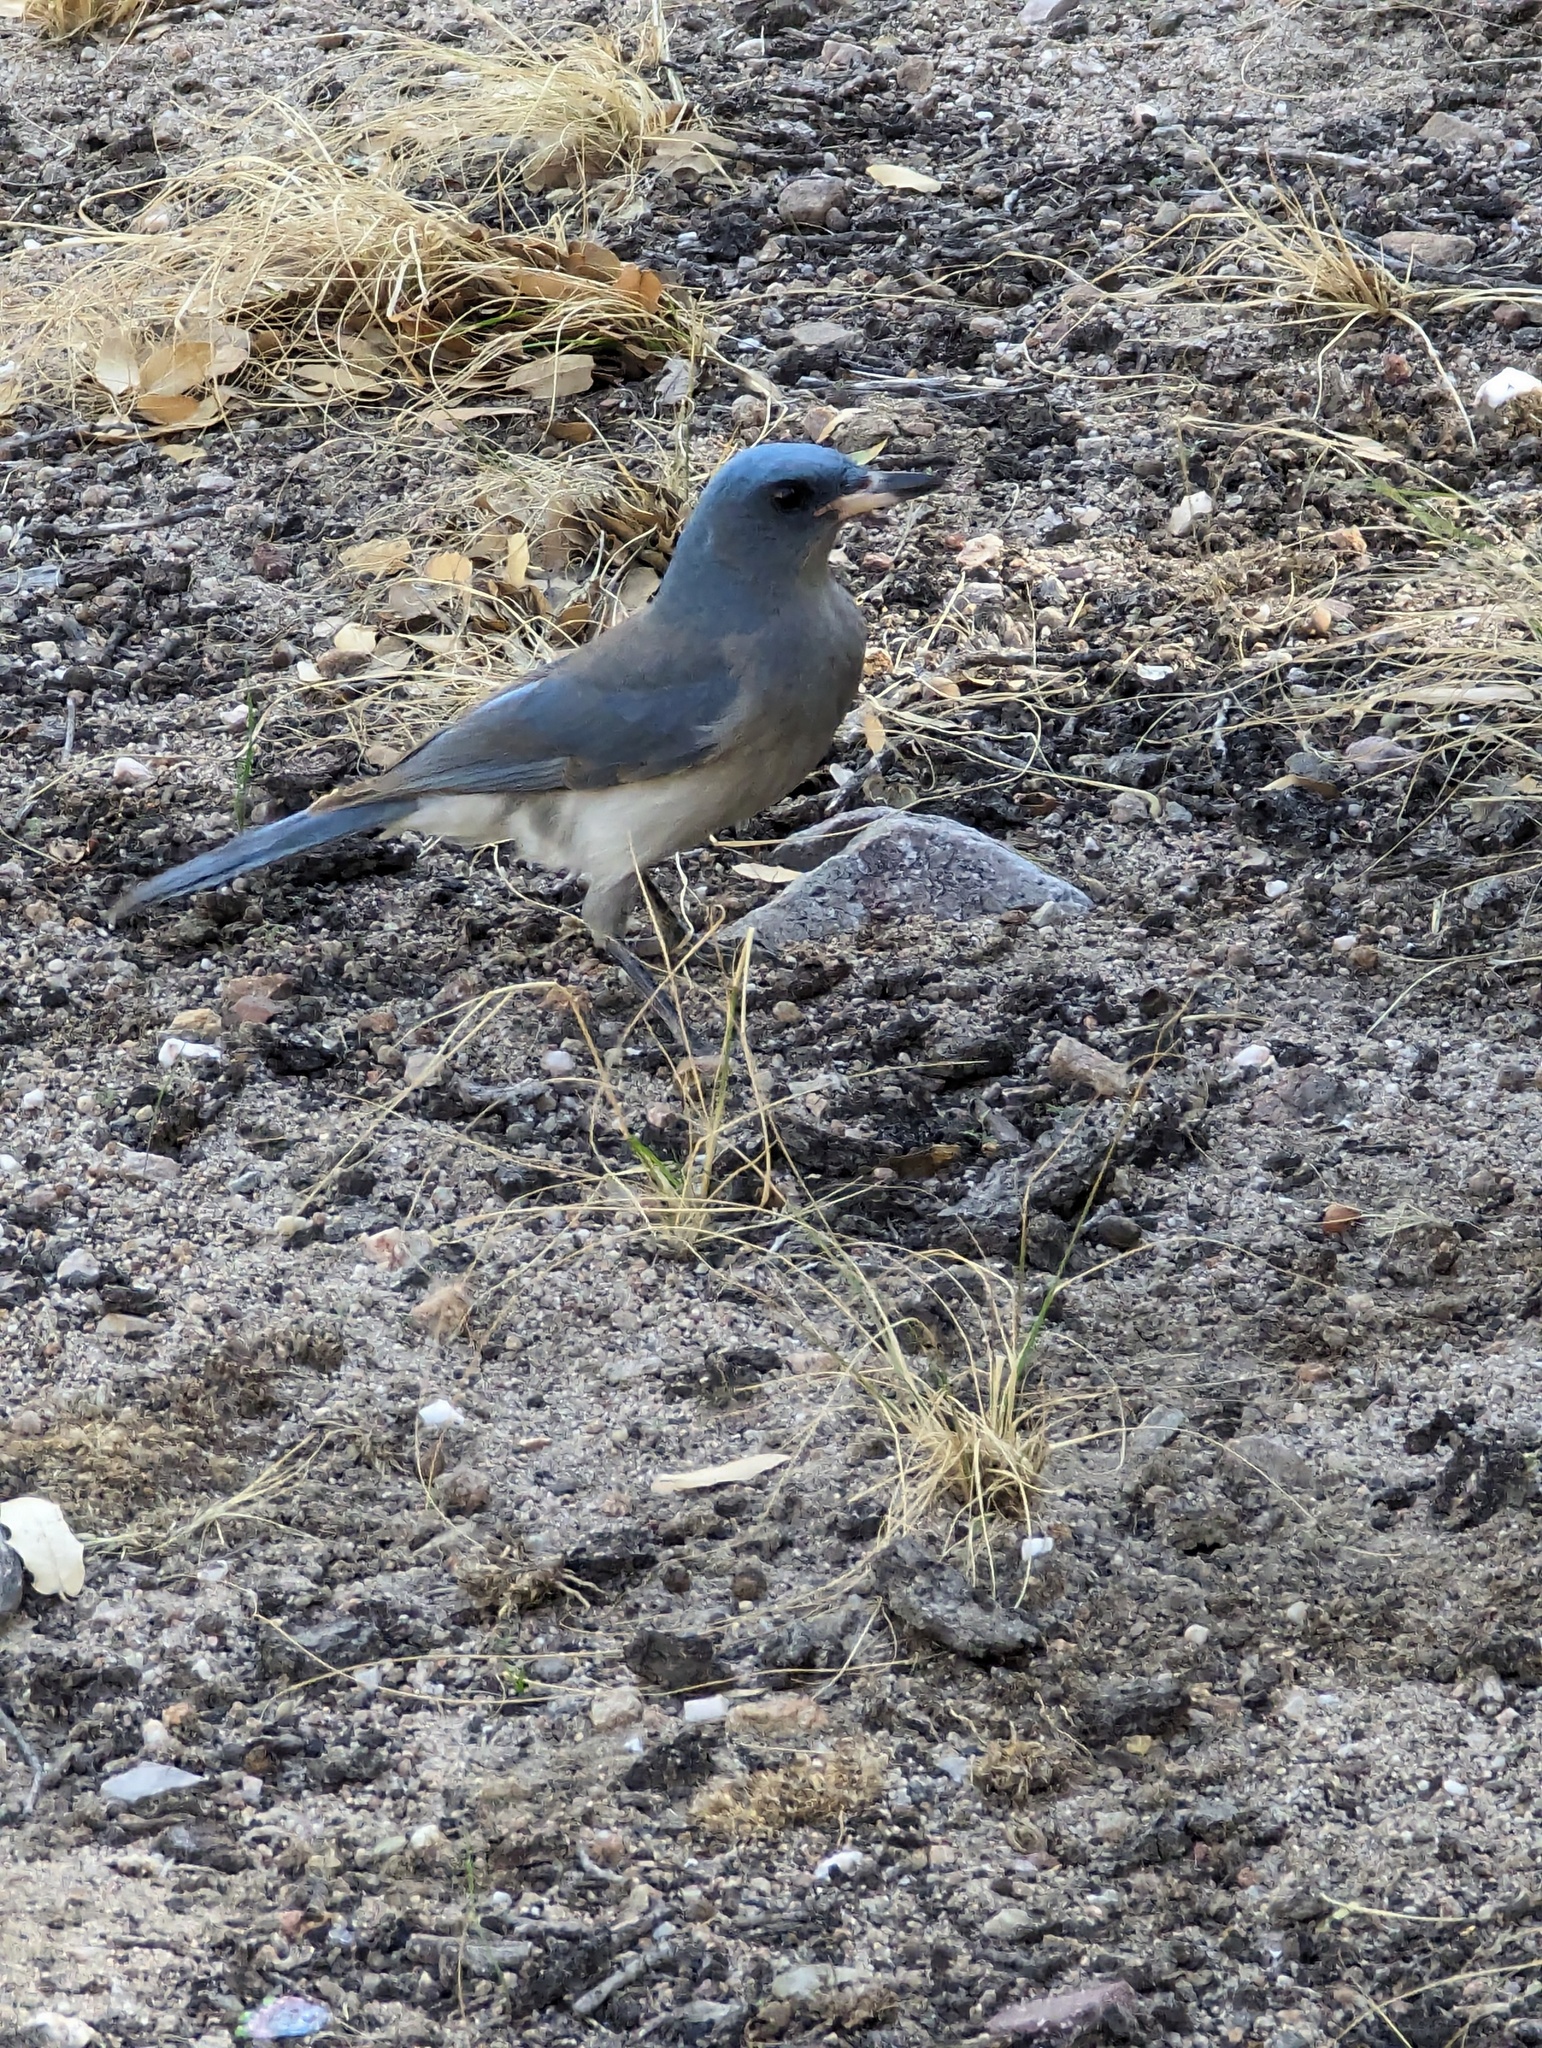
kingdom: Animalia
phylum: Chordata
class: Aves
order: Passeriformes
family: Corvidae
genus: Aphelocoma
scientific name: Aphelocoma wollweberi
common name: Mexican jay
